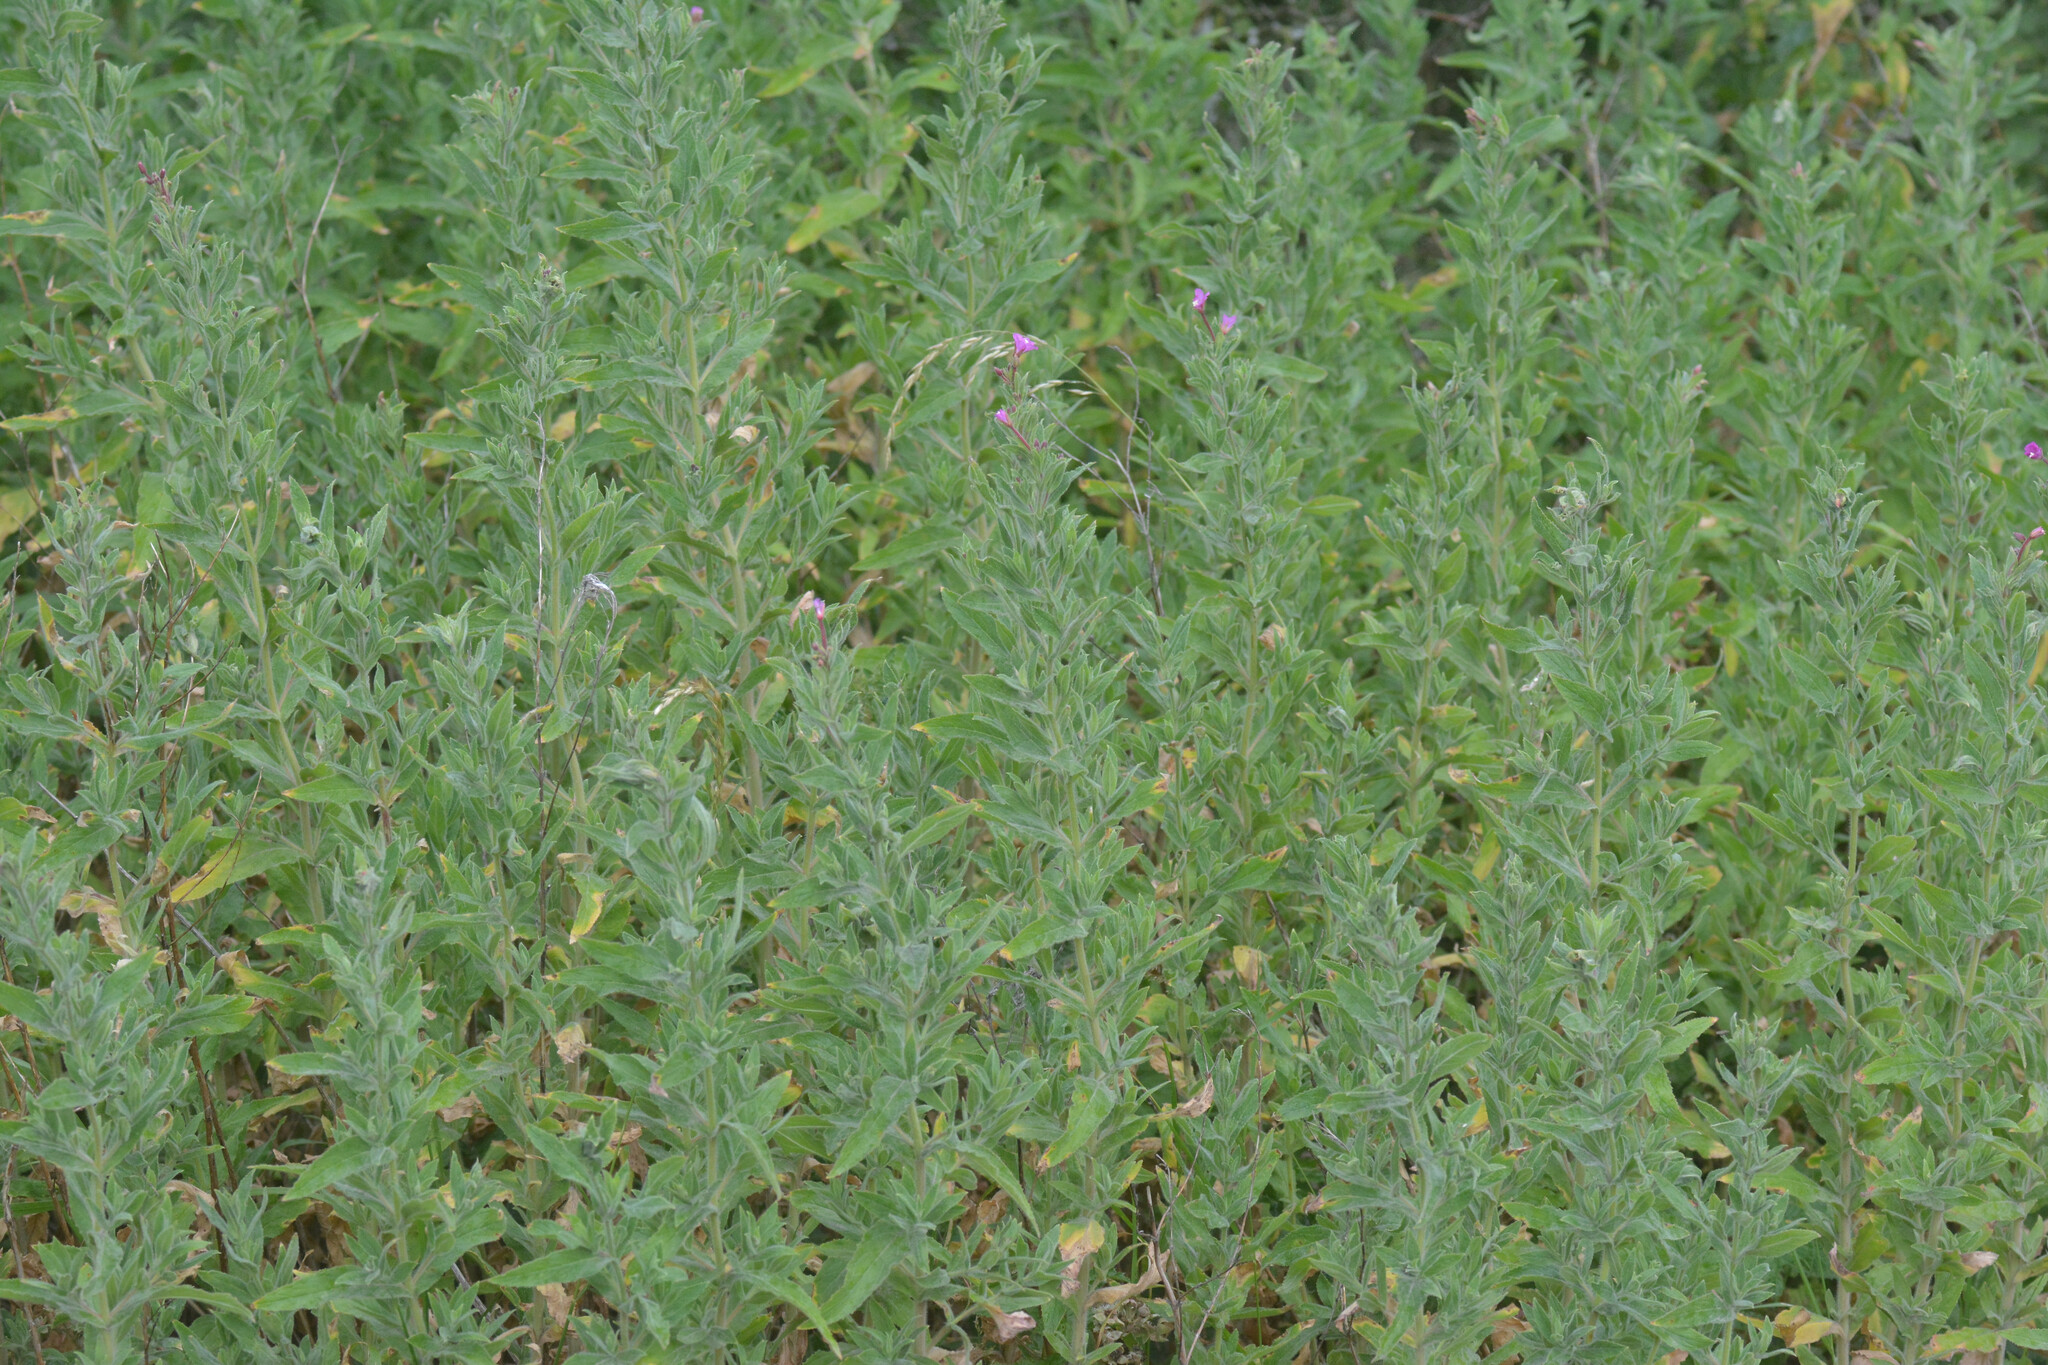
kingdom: Plantae
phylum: Tracheophyta
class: Magnoliopsida
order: Myrtales
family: Onagraceae
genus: Epilobium
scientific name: Epilobium hirsutum
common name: Great willowherb
